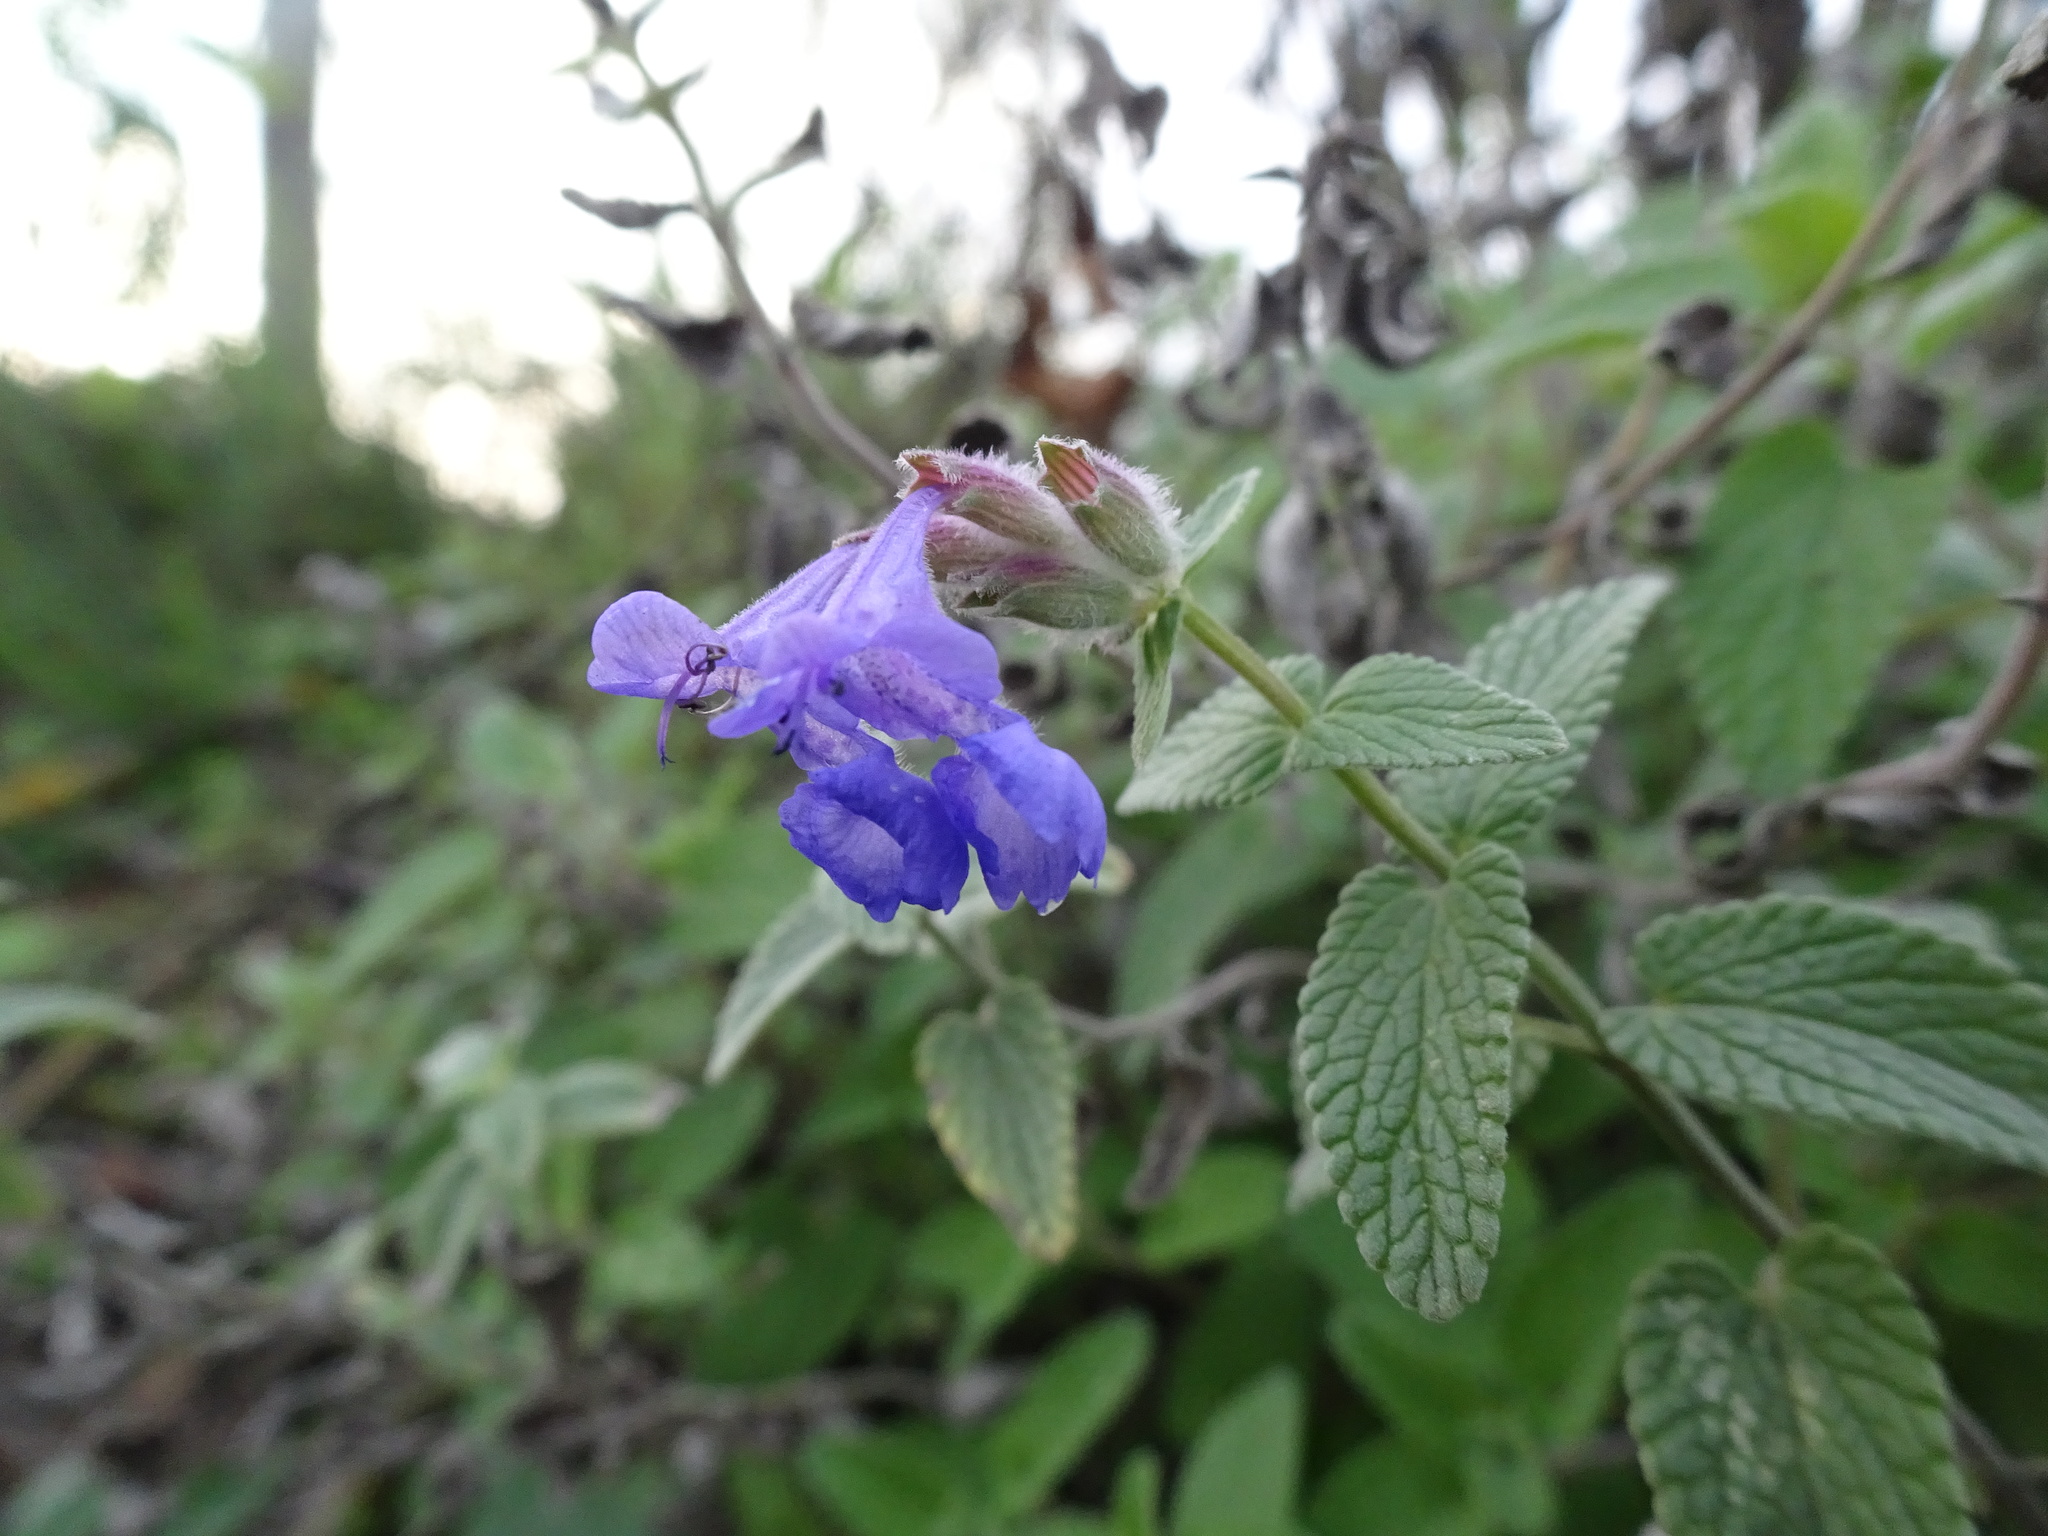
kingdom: Plantae
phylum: Tracheophyta
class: Magnoliopsida
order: Lamiales
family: Lamiaceae
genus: Nepeta
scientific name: Nepeta racemosa
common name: Raceme catnip
